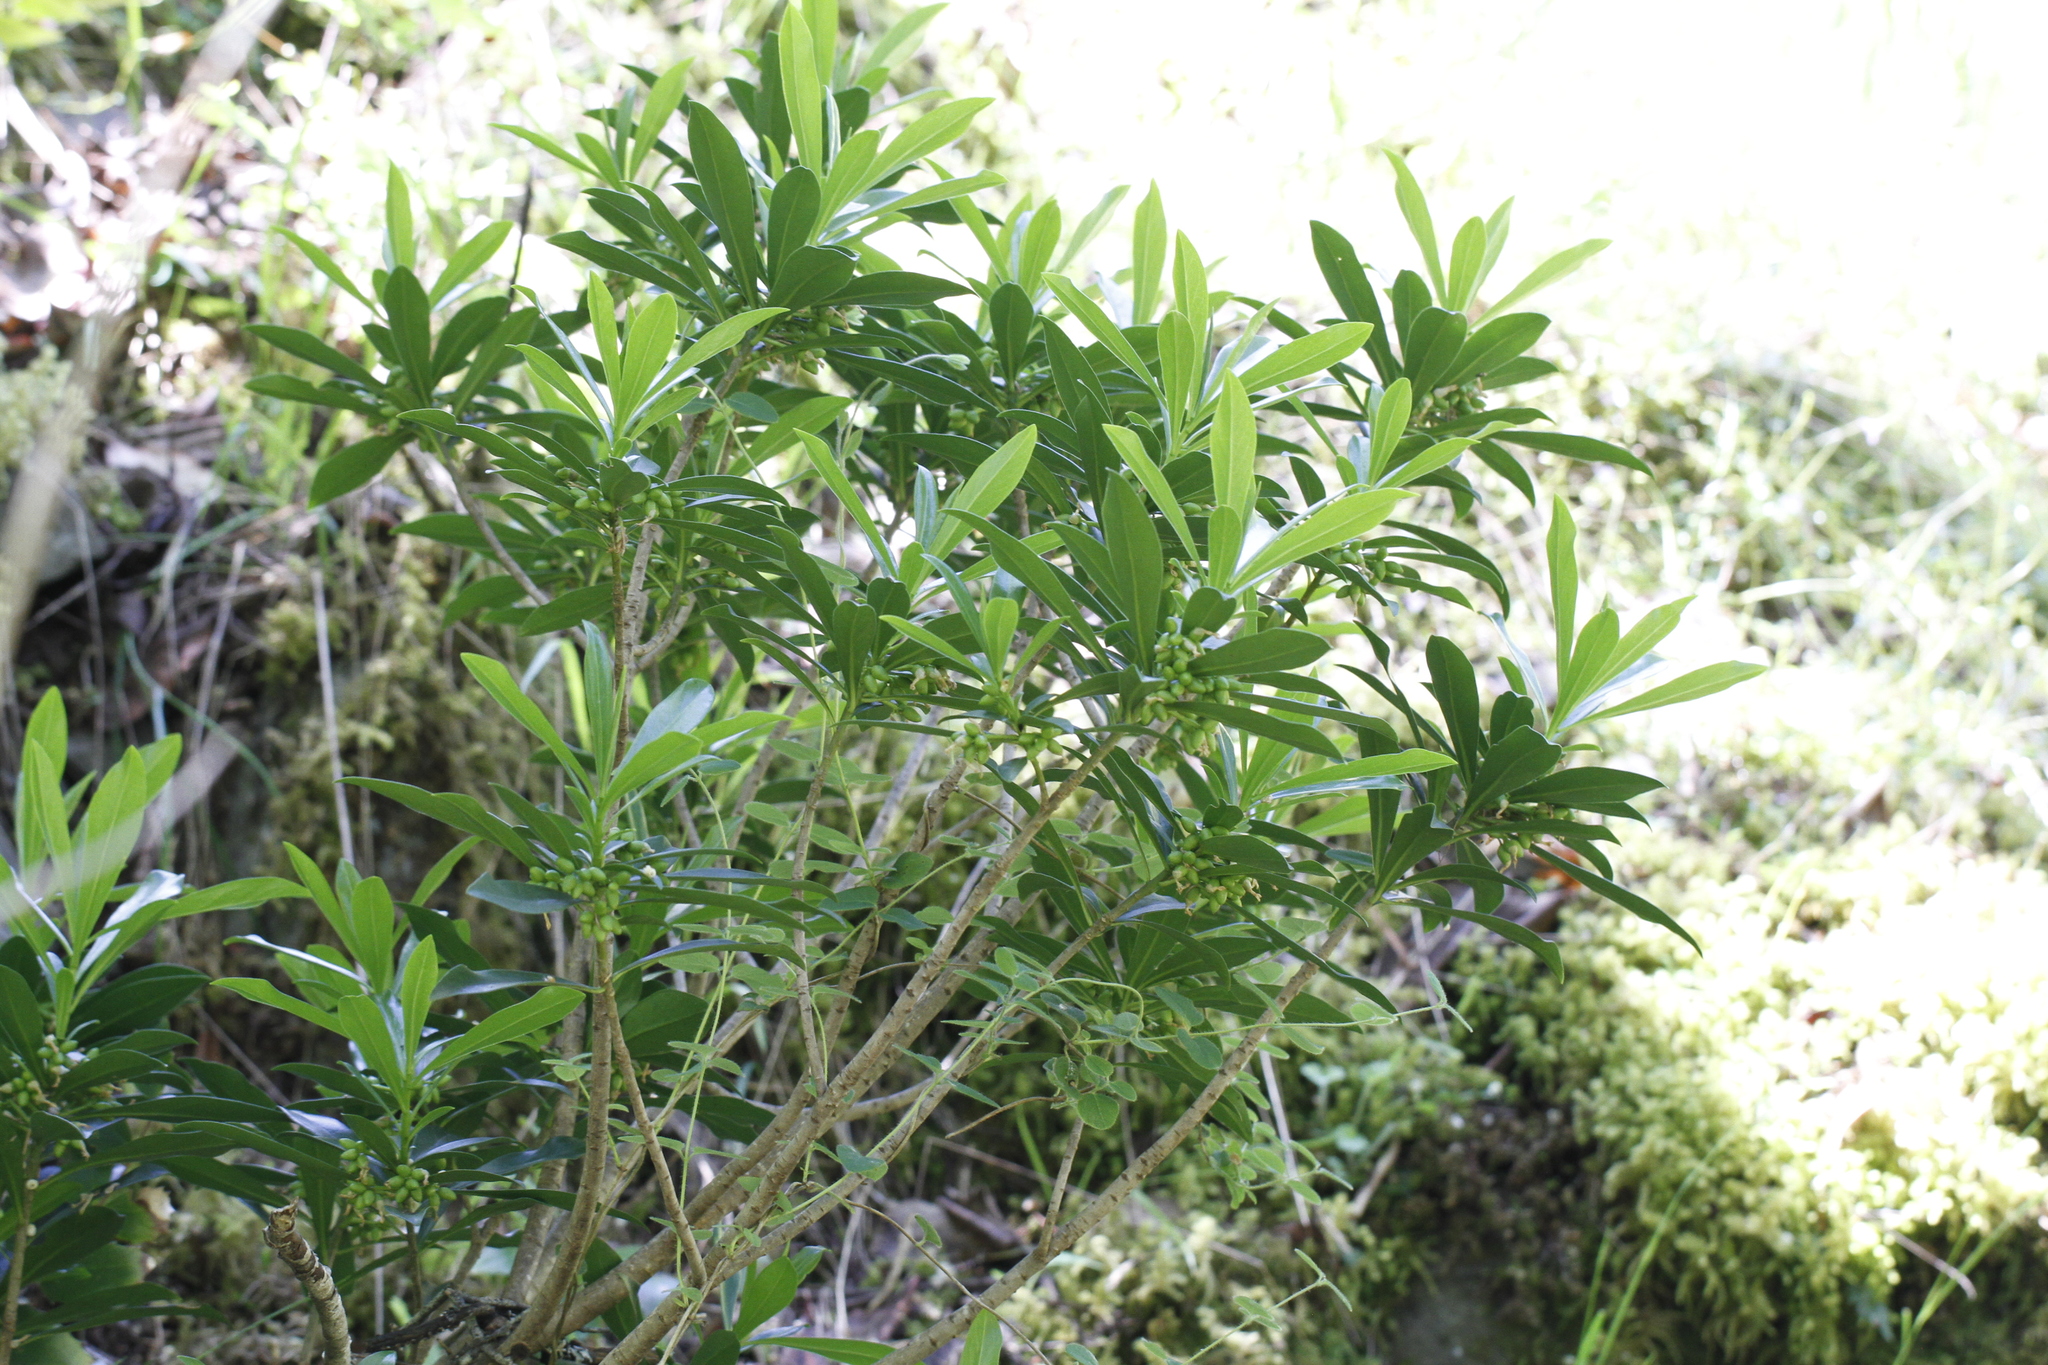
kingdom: Plantae
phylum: Tracheophyta
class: Magnoliopsida
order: Malvales
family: Thymelaeaceae
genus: Daphne
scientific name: Daphne laureola
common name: Spurge-laurel
